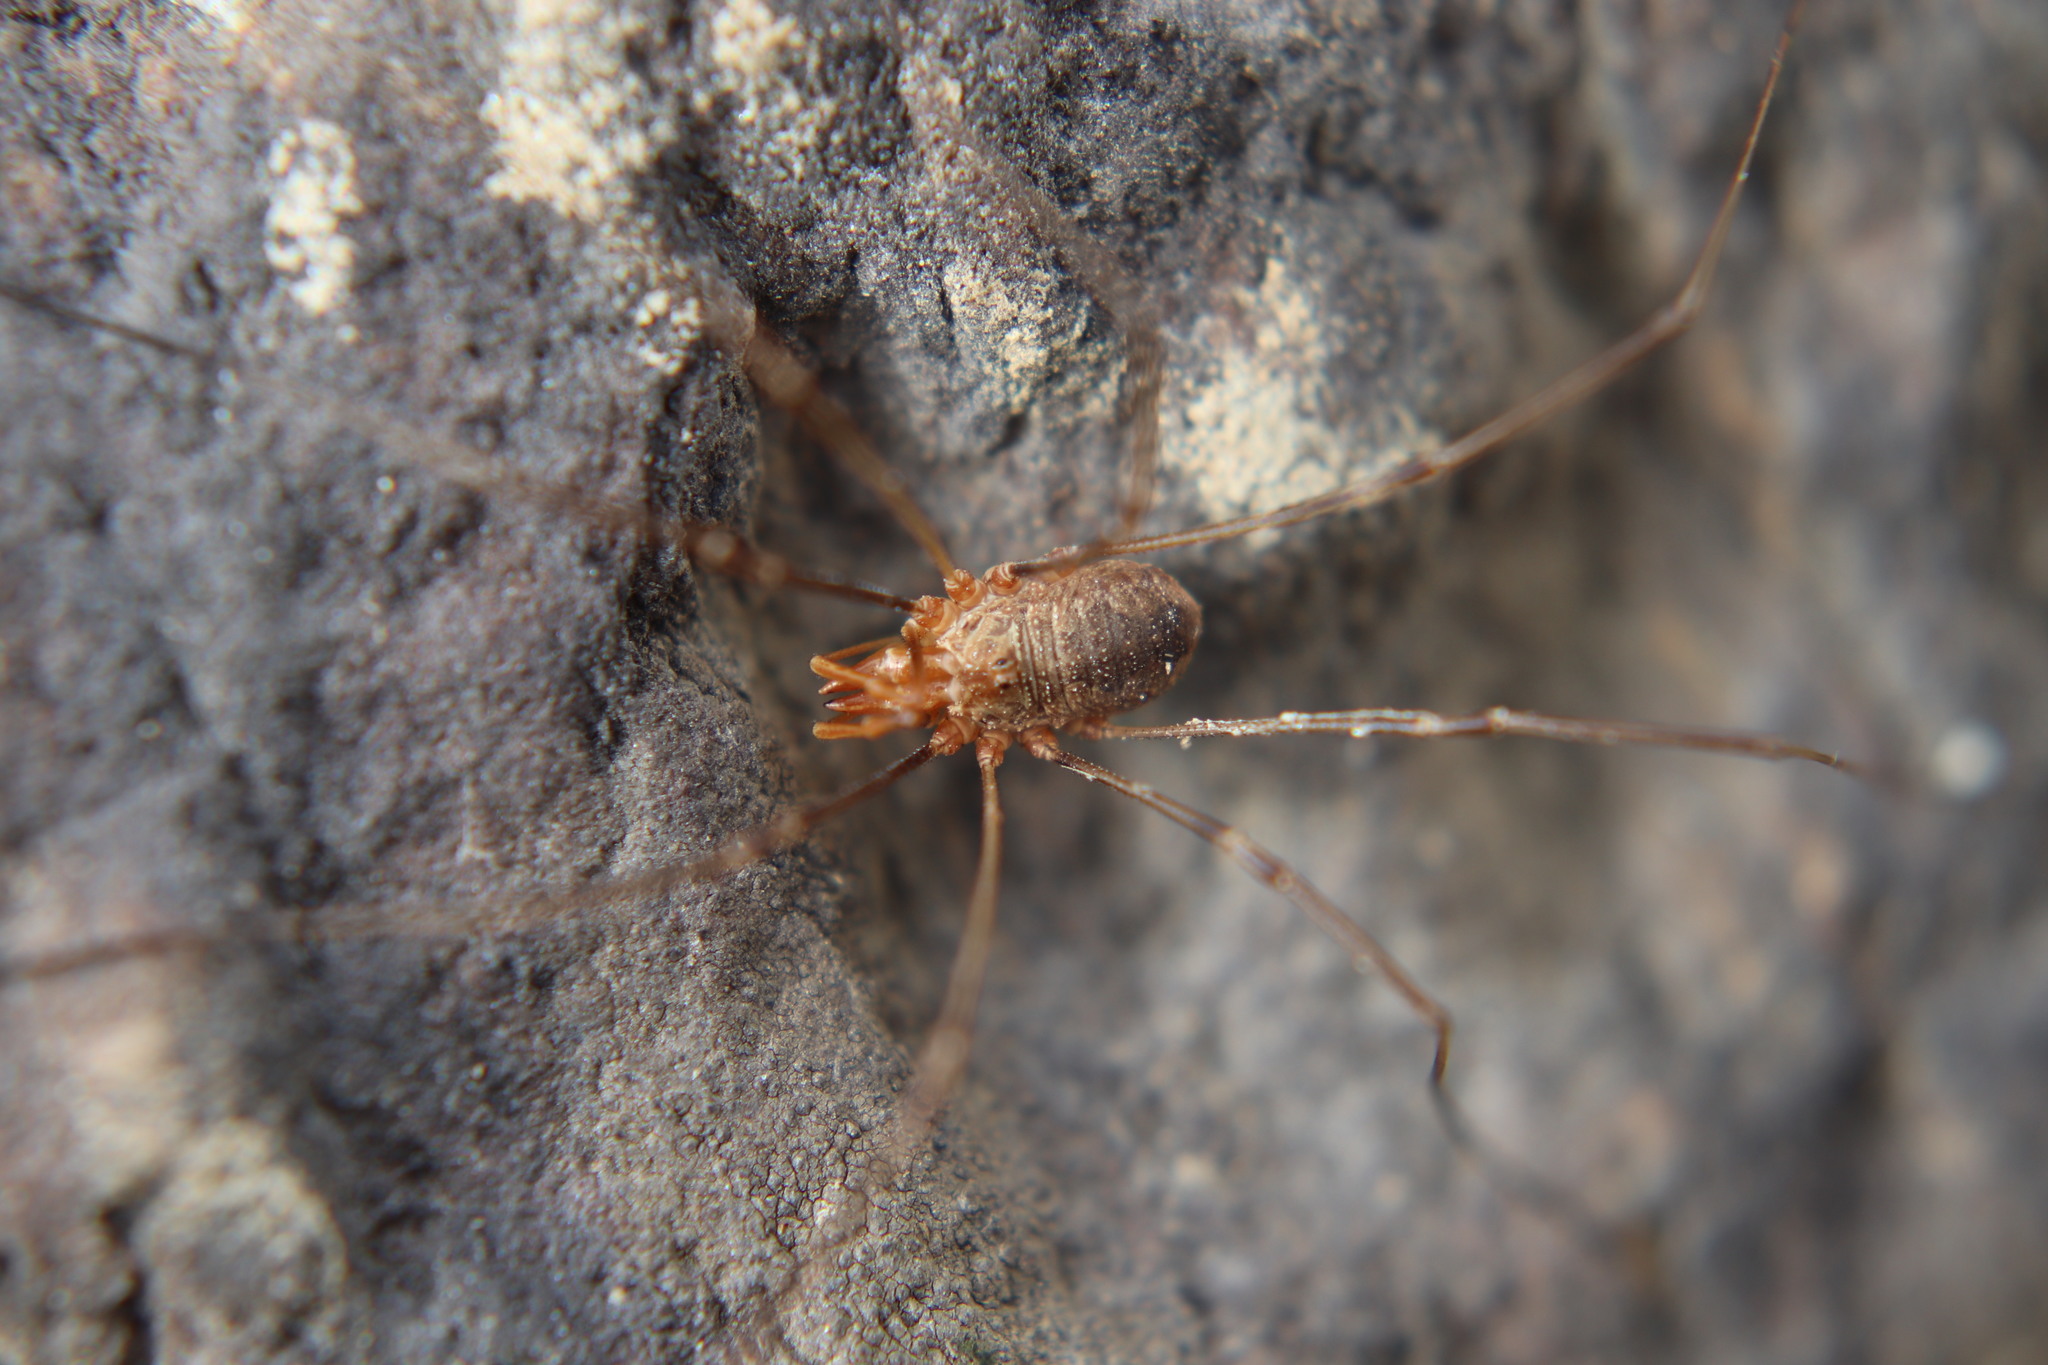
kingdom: Animalia
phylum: Arthropoda
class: Arachnida
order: Opiliones
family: Phalangiidae
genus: Phalangium
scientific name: Phalangium opilio
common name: Daddy longleg
